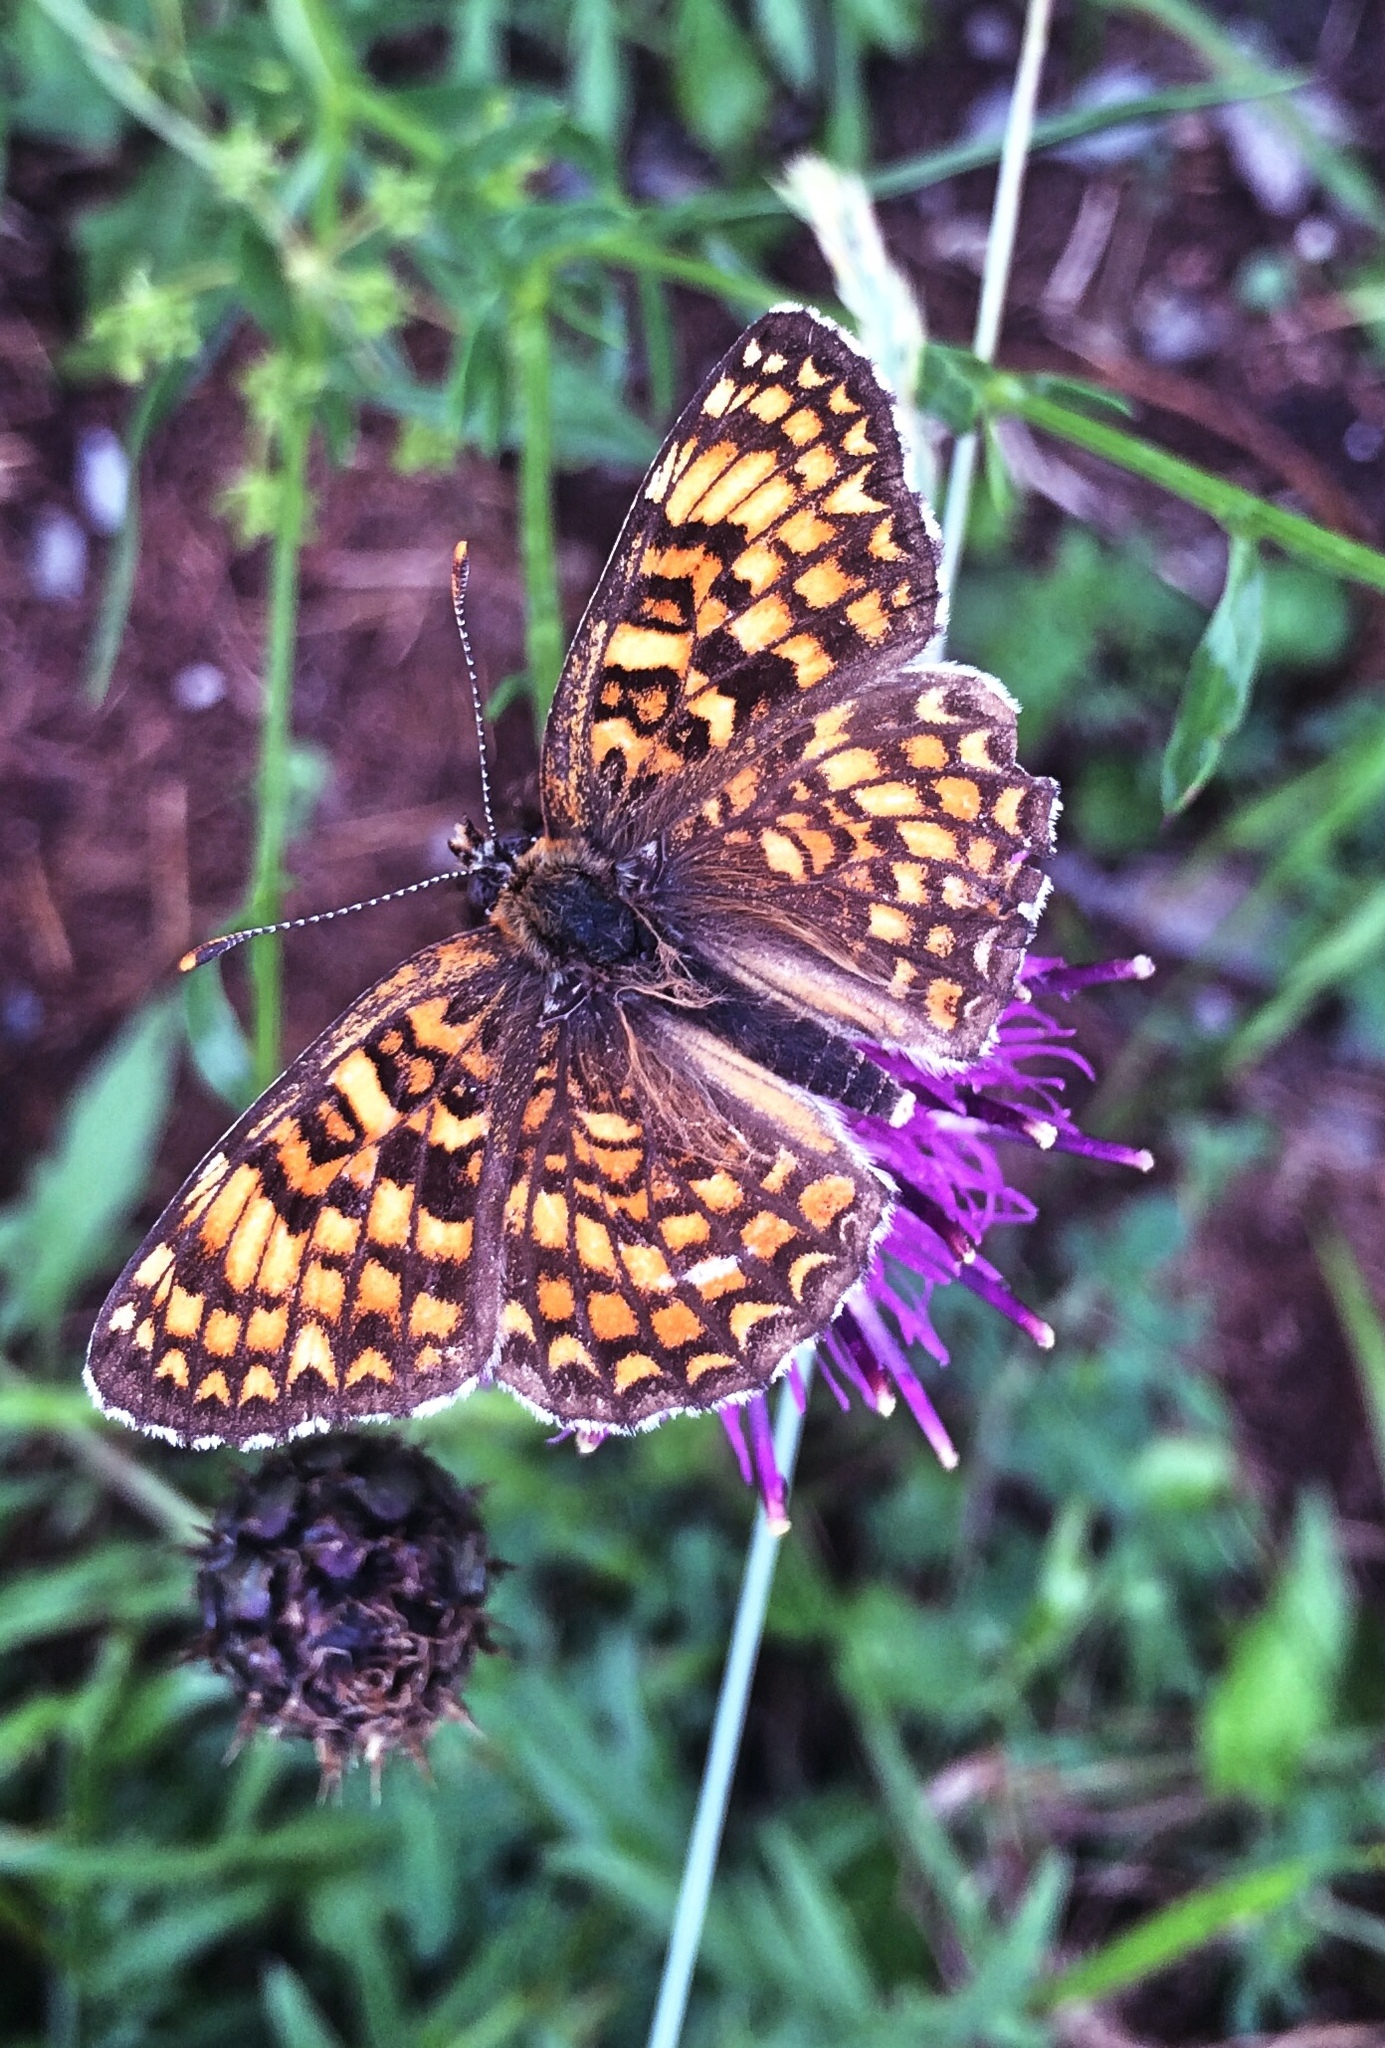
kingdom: Animalia
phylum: Arthropoda
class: Insecta
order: Lepidoptera
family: Nymphalidae
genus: Melitaea
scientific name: Melitaea phoebe
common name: Knapweed fritillary
